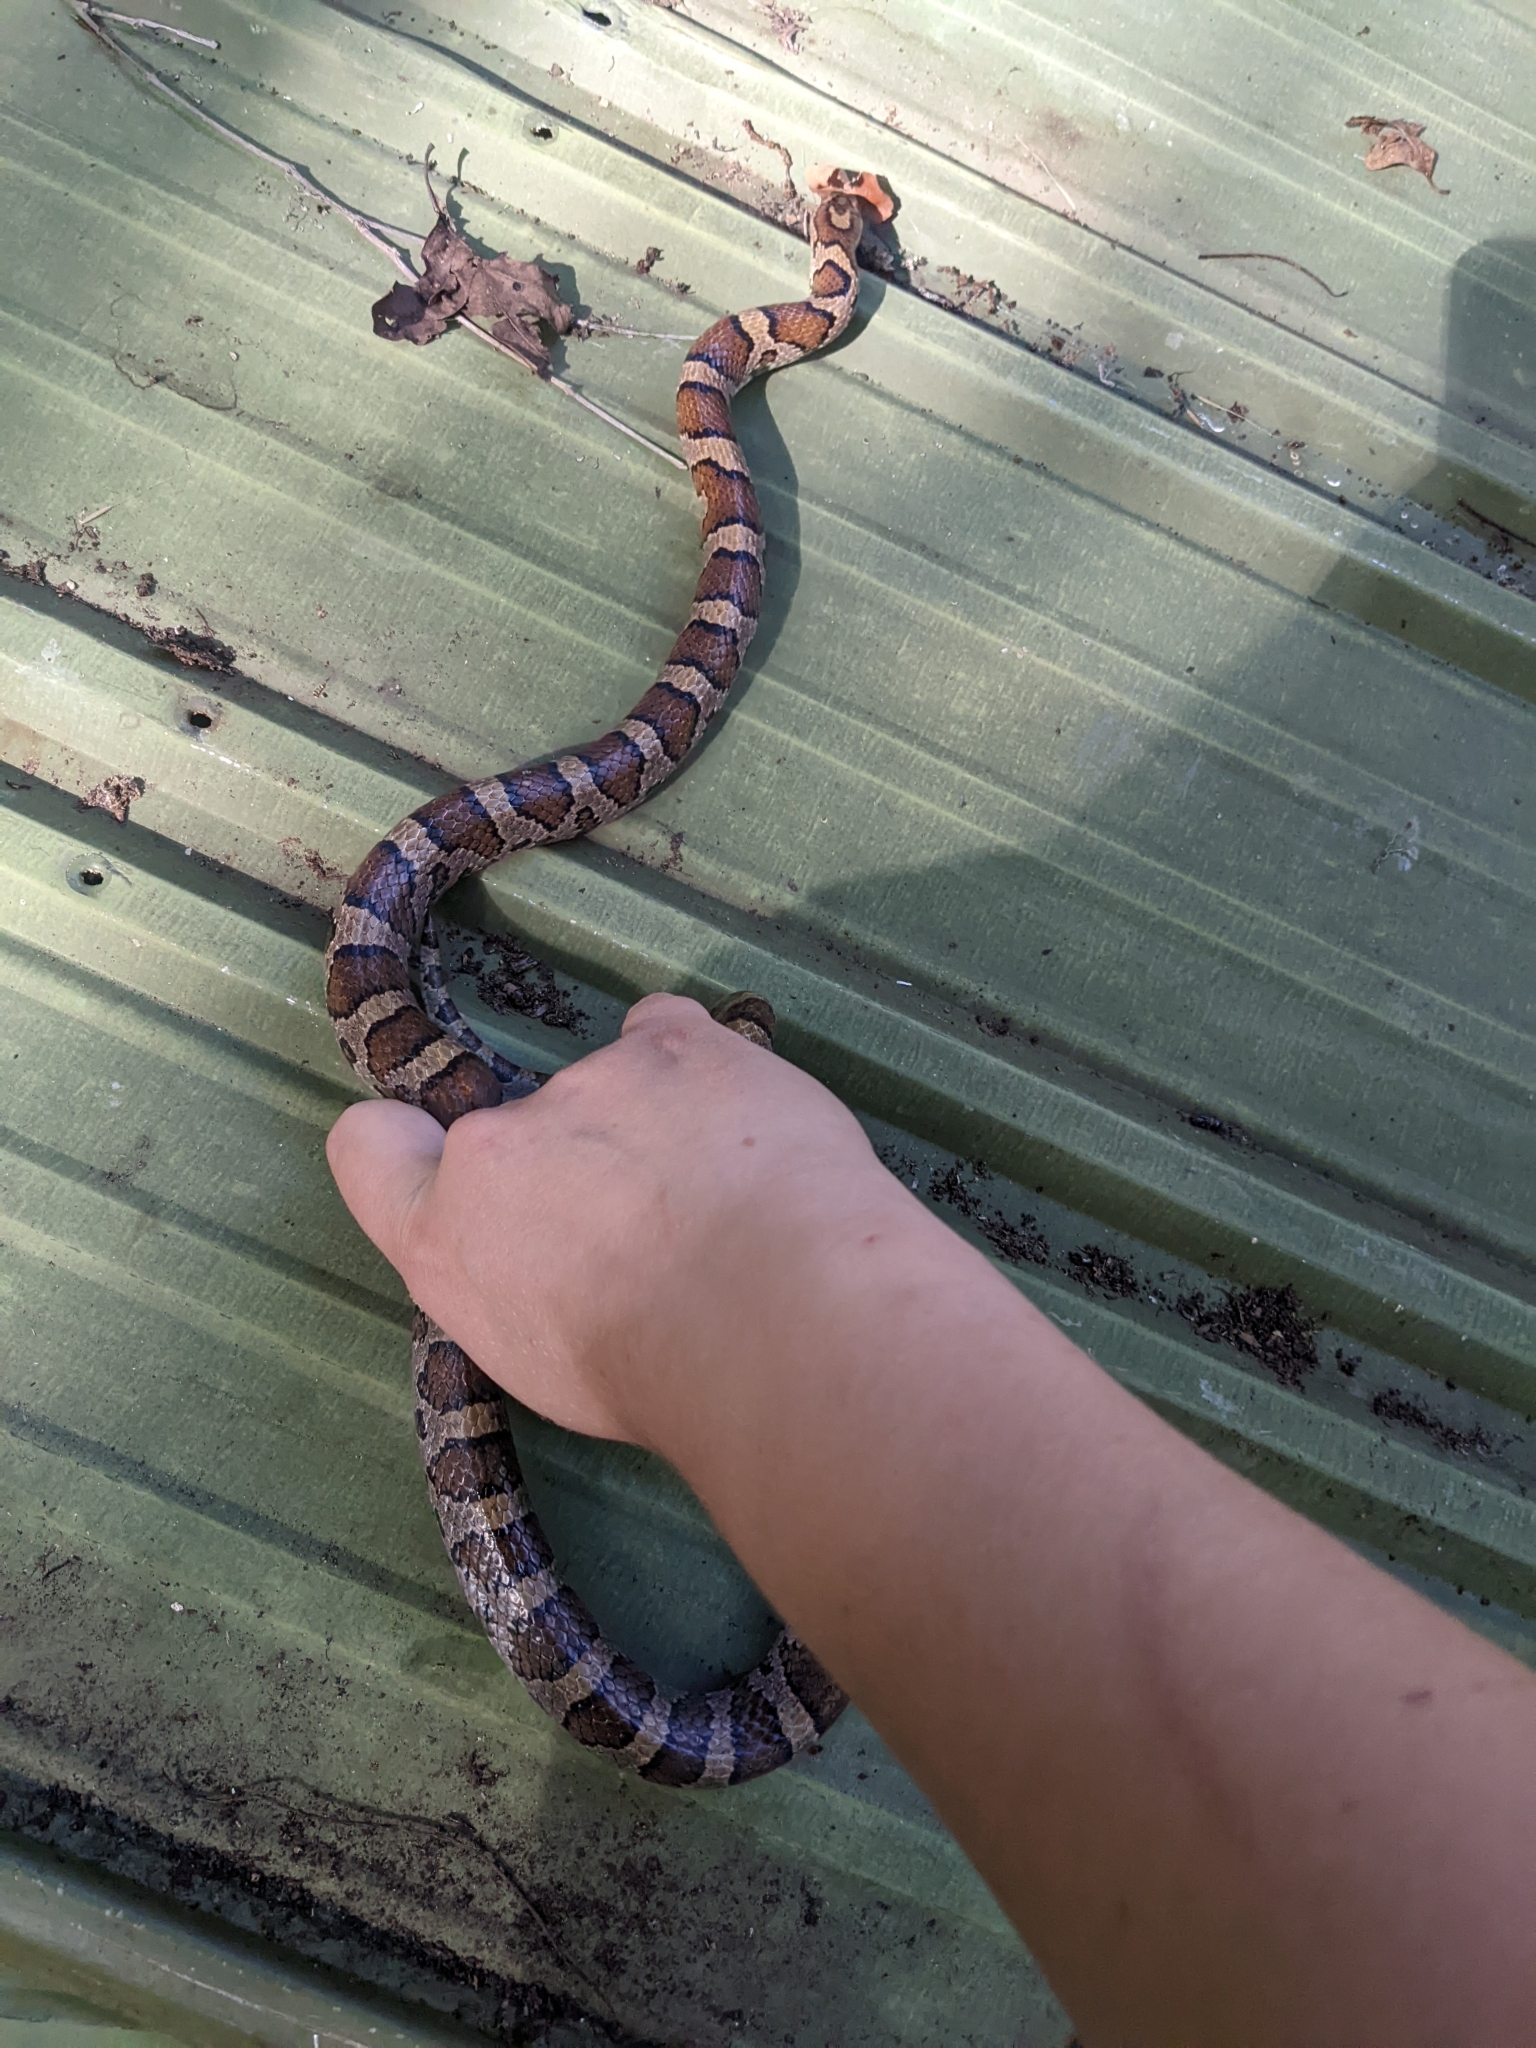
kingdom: Animalia
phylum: Chordata
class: Squamata
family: Colubridae
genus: Lampropeltis
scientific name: Lampropeltis triangulum
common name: Eastern milksnake
